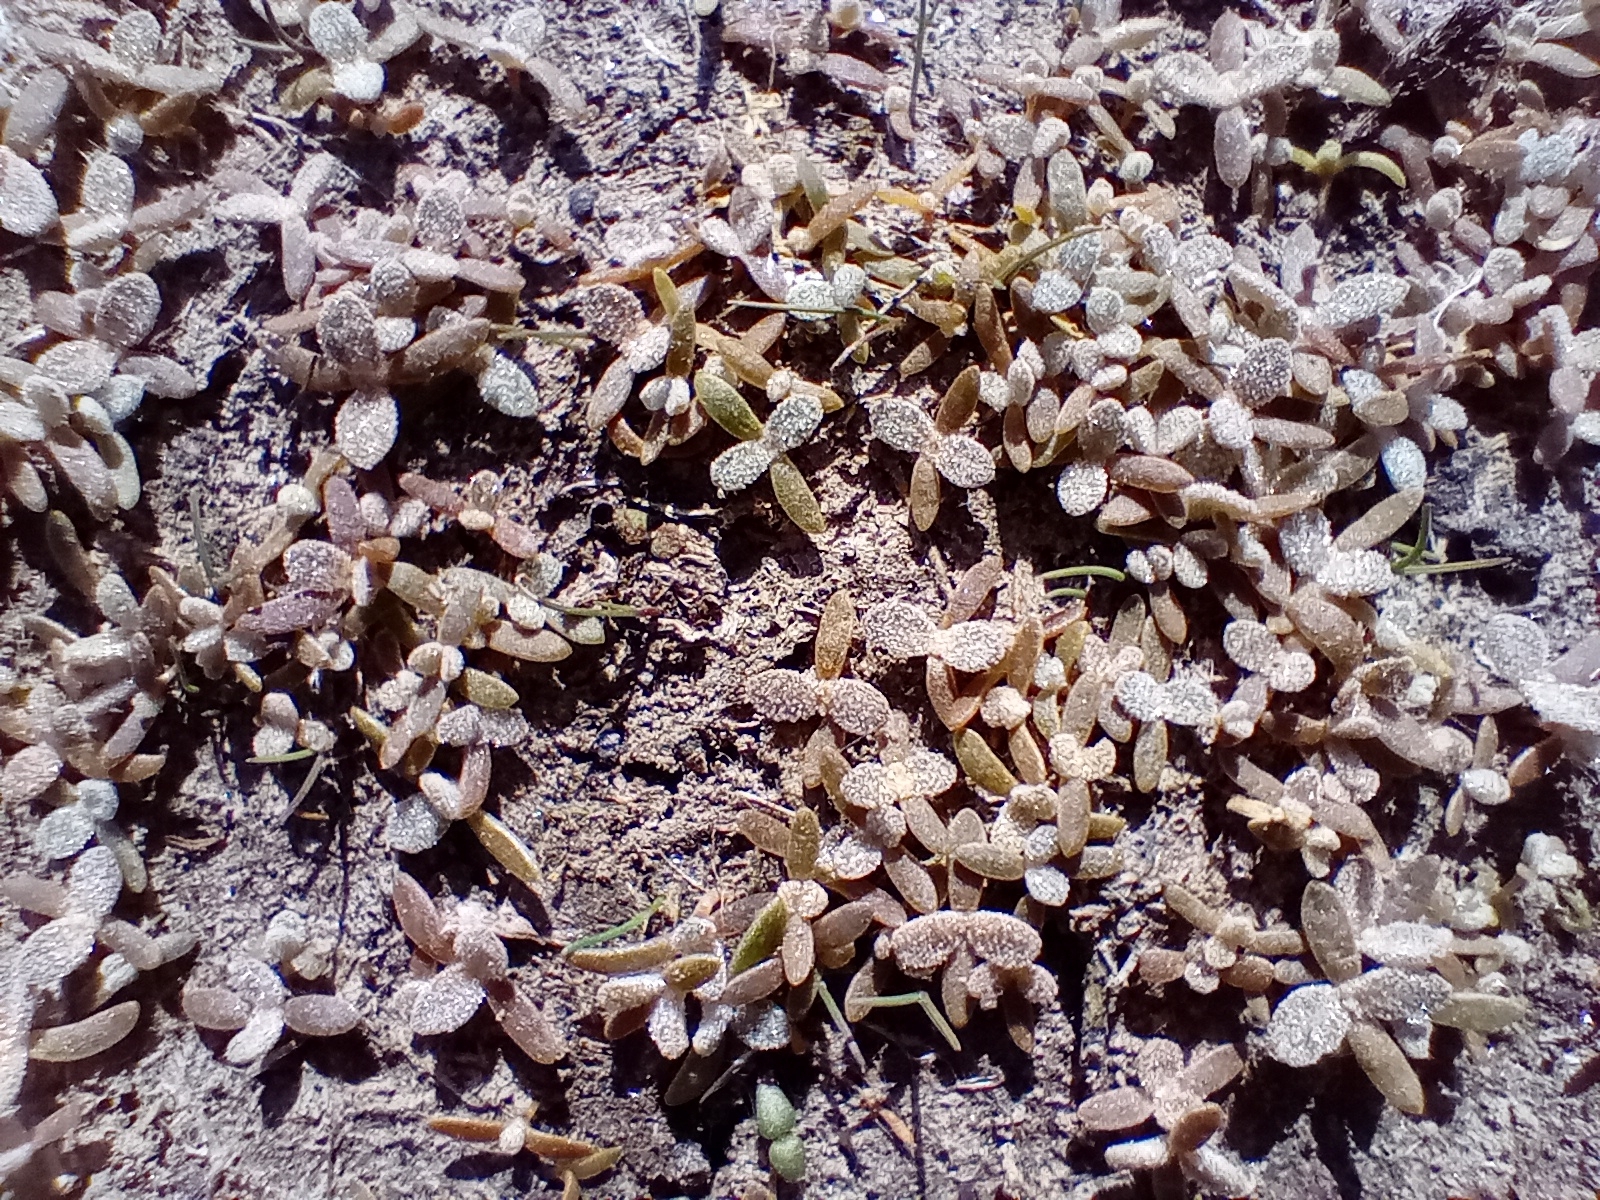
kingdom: Plantae
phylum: Tracheophyta
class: Magnoliopsida
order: Caryophyllales
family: Amaranthaceae
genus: Atriplex
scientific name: Atriplex buchananii
